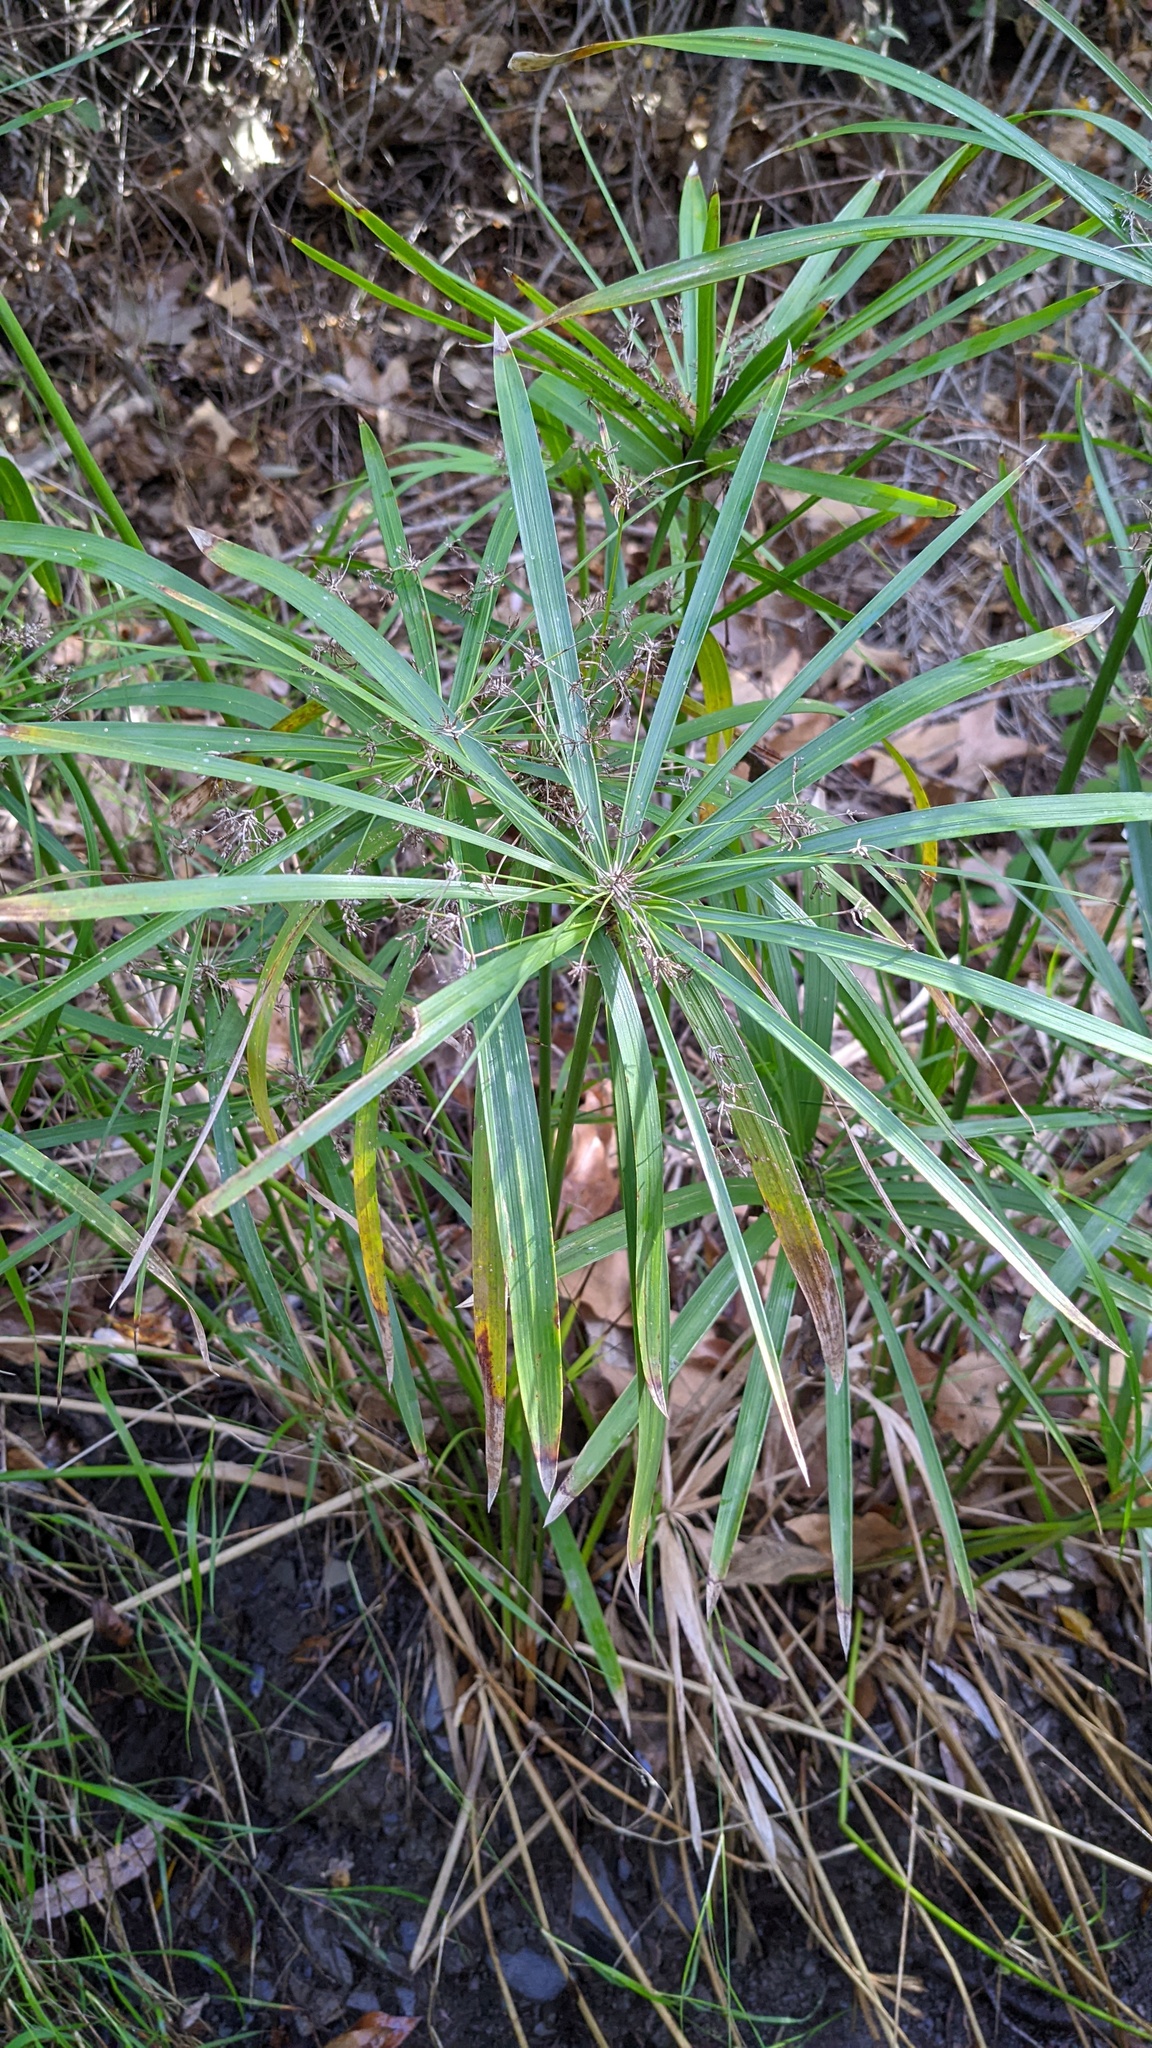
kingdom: Plantae
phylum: Tracheophyta
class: Liliopsida
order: Poales
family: Cyperaceae
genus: Cyperus
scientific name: Cyperus alternifolius
